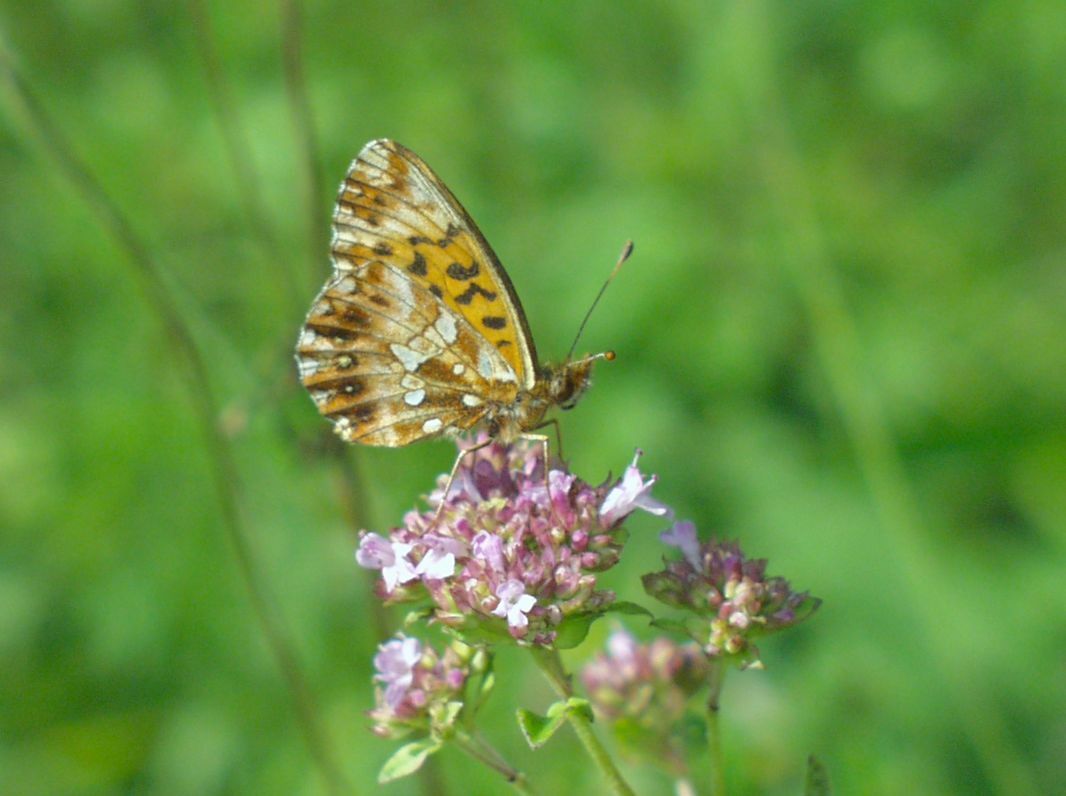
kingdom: Animalia
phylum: Arthropoda
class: Insecta
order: Lepidoptera
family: Nymphalidae
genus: Boloria
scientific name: Boloria dia
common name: Weaver's fritillary
